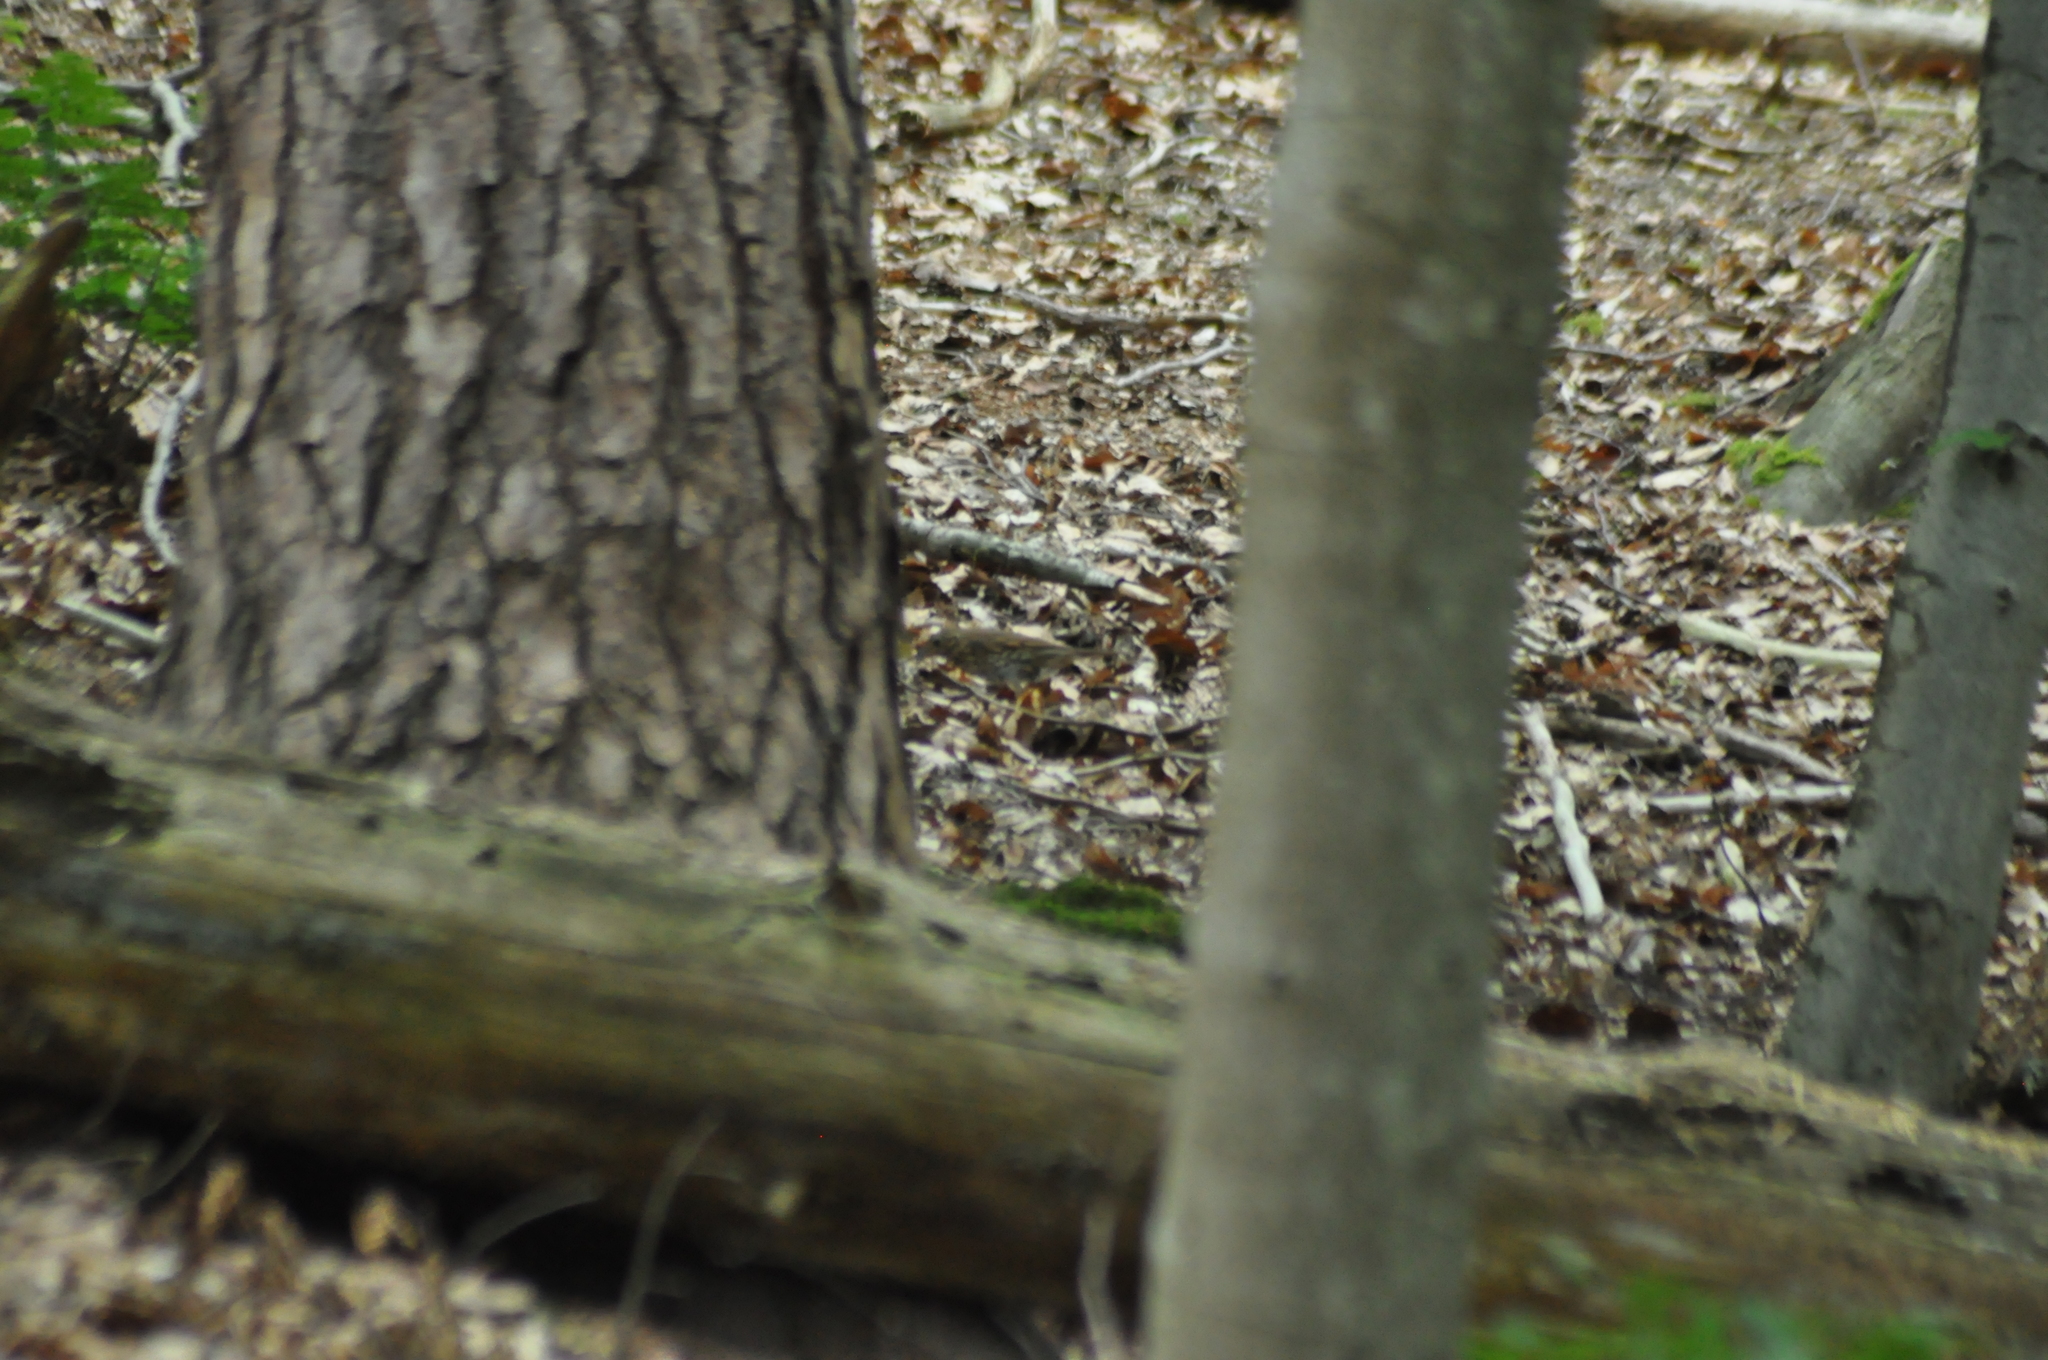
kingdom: Animalia
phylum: Chordata
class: Aves
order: Passeriformes
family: Turdidae
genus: Turdus
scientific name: Turdus philomelos
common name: Song thrush
